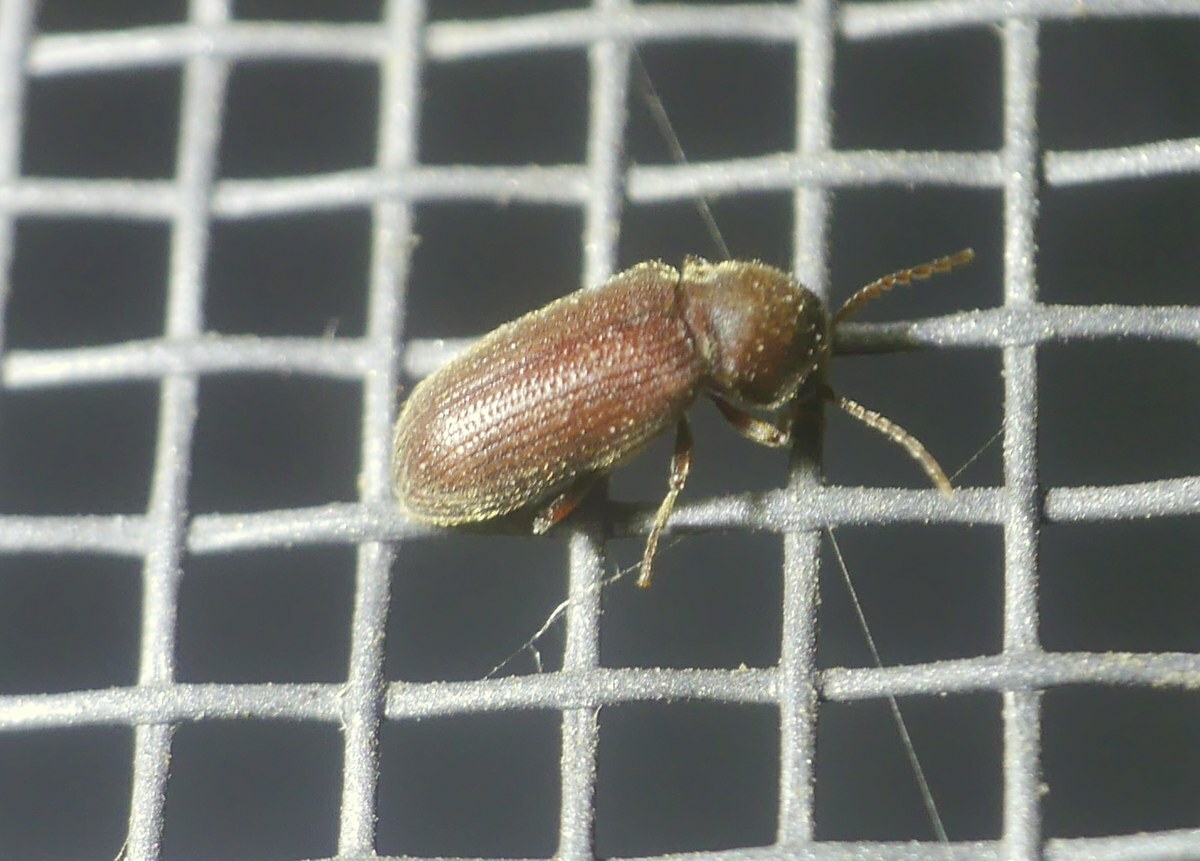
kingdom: Animalia
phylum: Arthropoda
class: Insecta
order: Coleoptera
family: Anobiidae
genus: Priobium
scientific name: Priobium carpini
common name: Anobiid beetle
